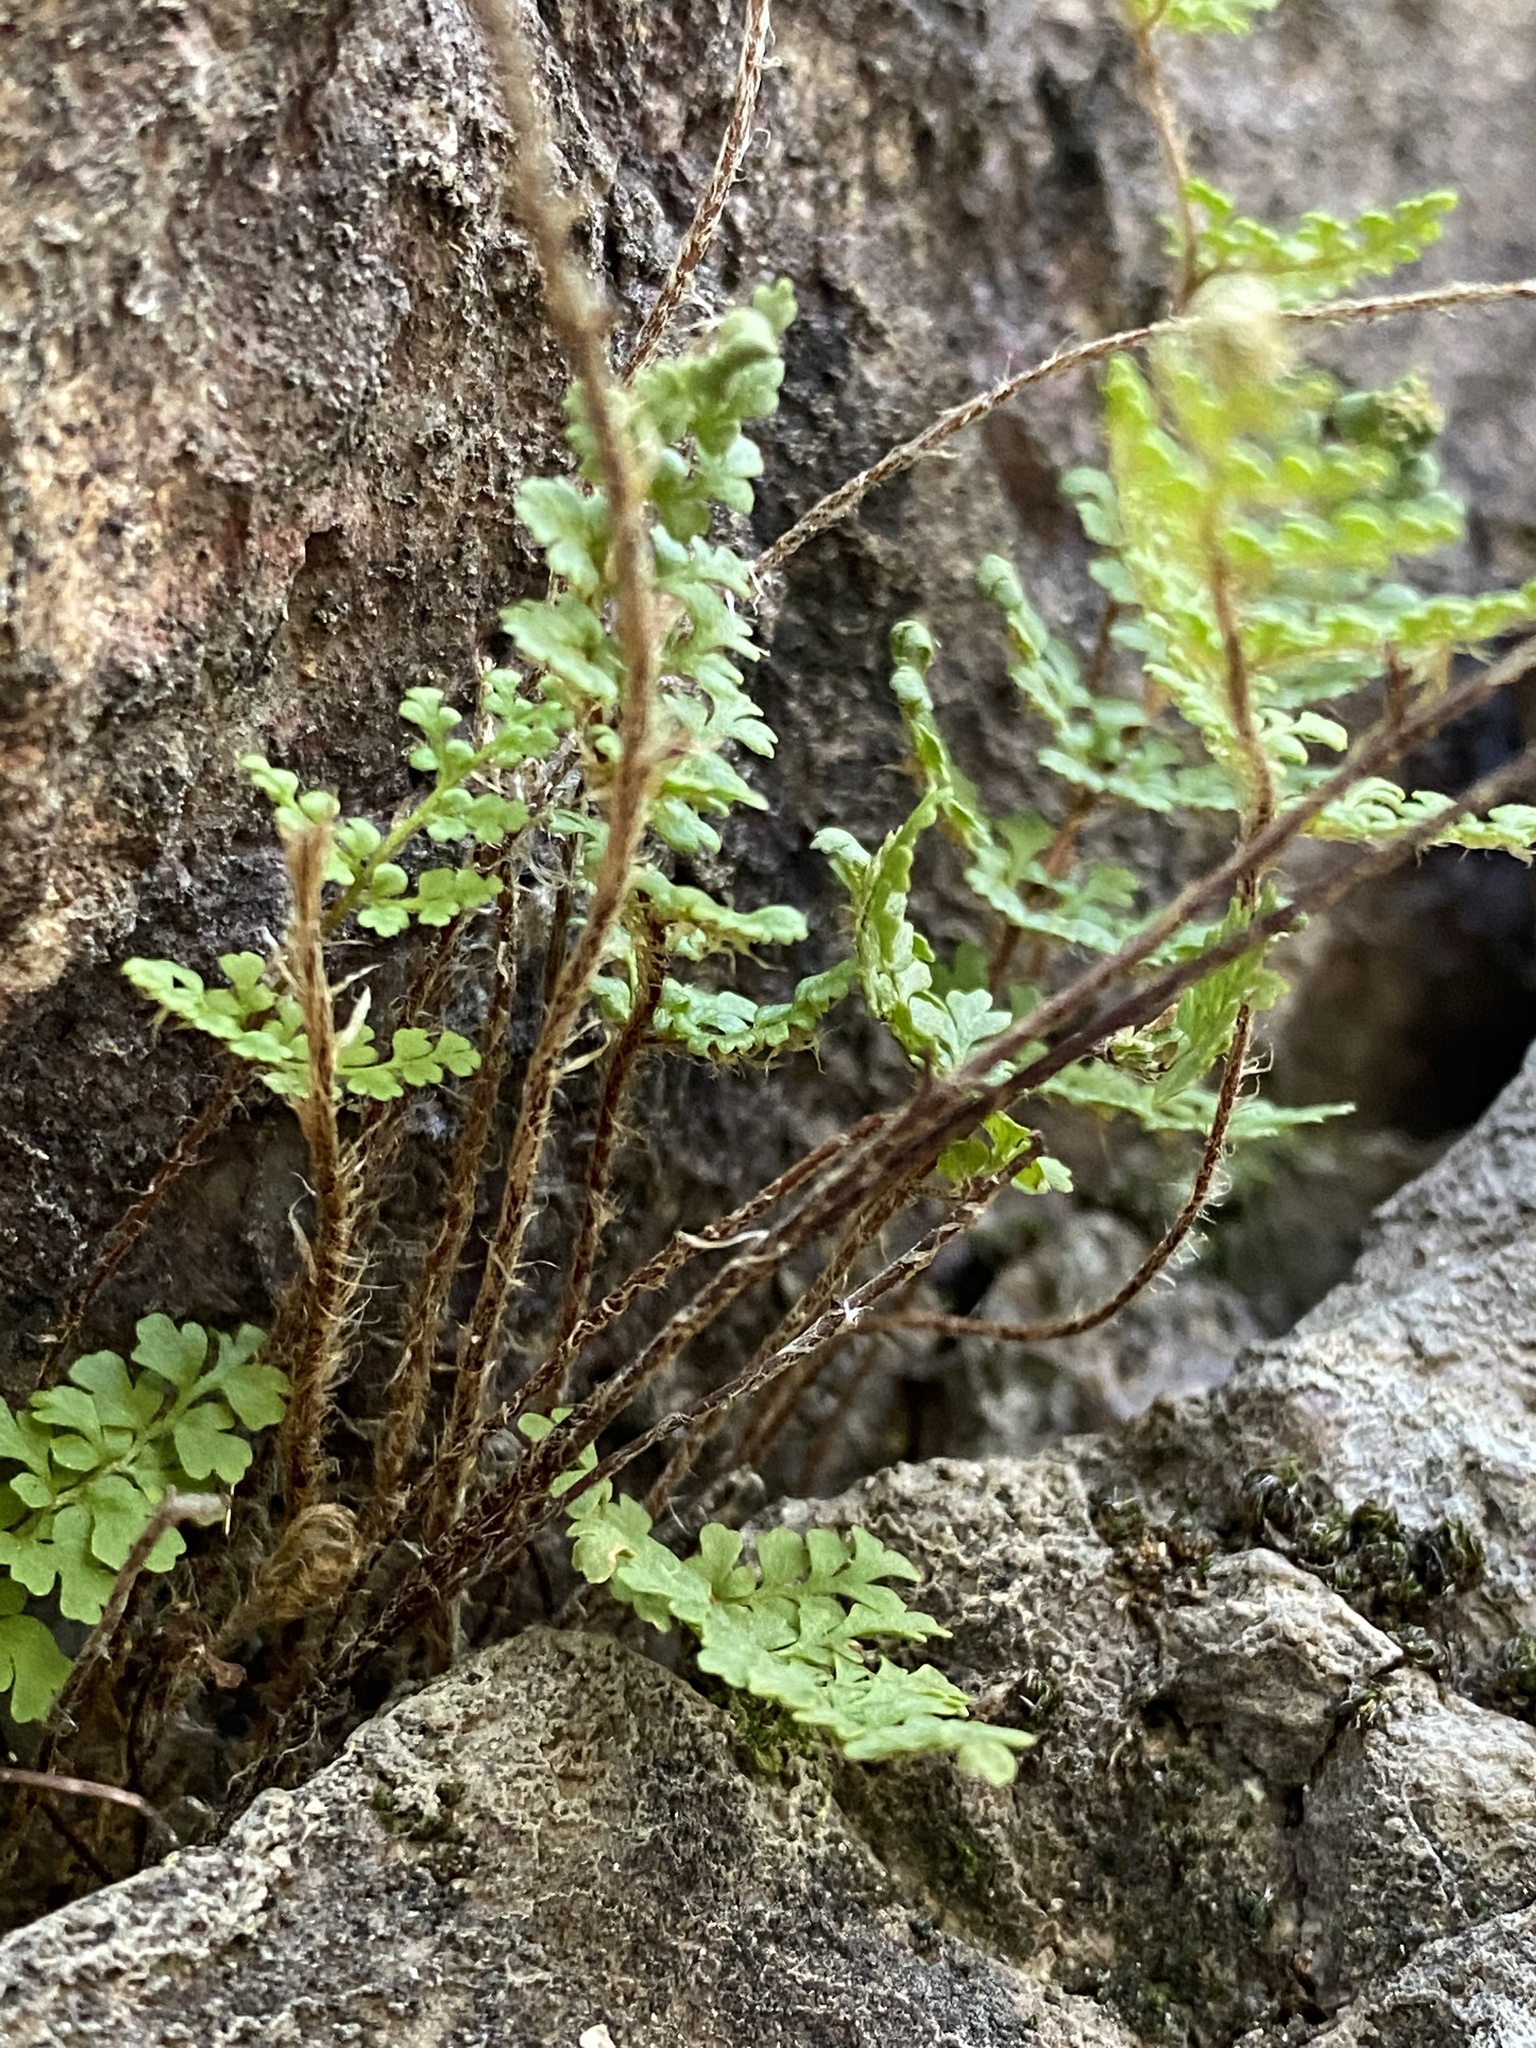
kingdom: Plantae
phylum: Tracheophyta
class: Polypodiopsida
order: Polypodiales
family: Pteridaceae
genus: Myriopteris
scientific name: Myriopteris fendleri
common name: Fendler's lip fern
